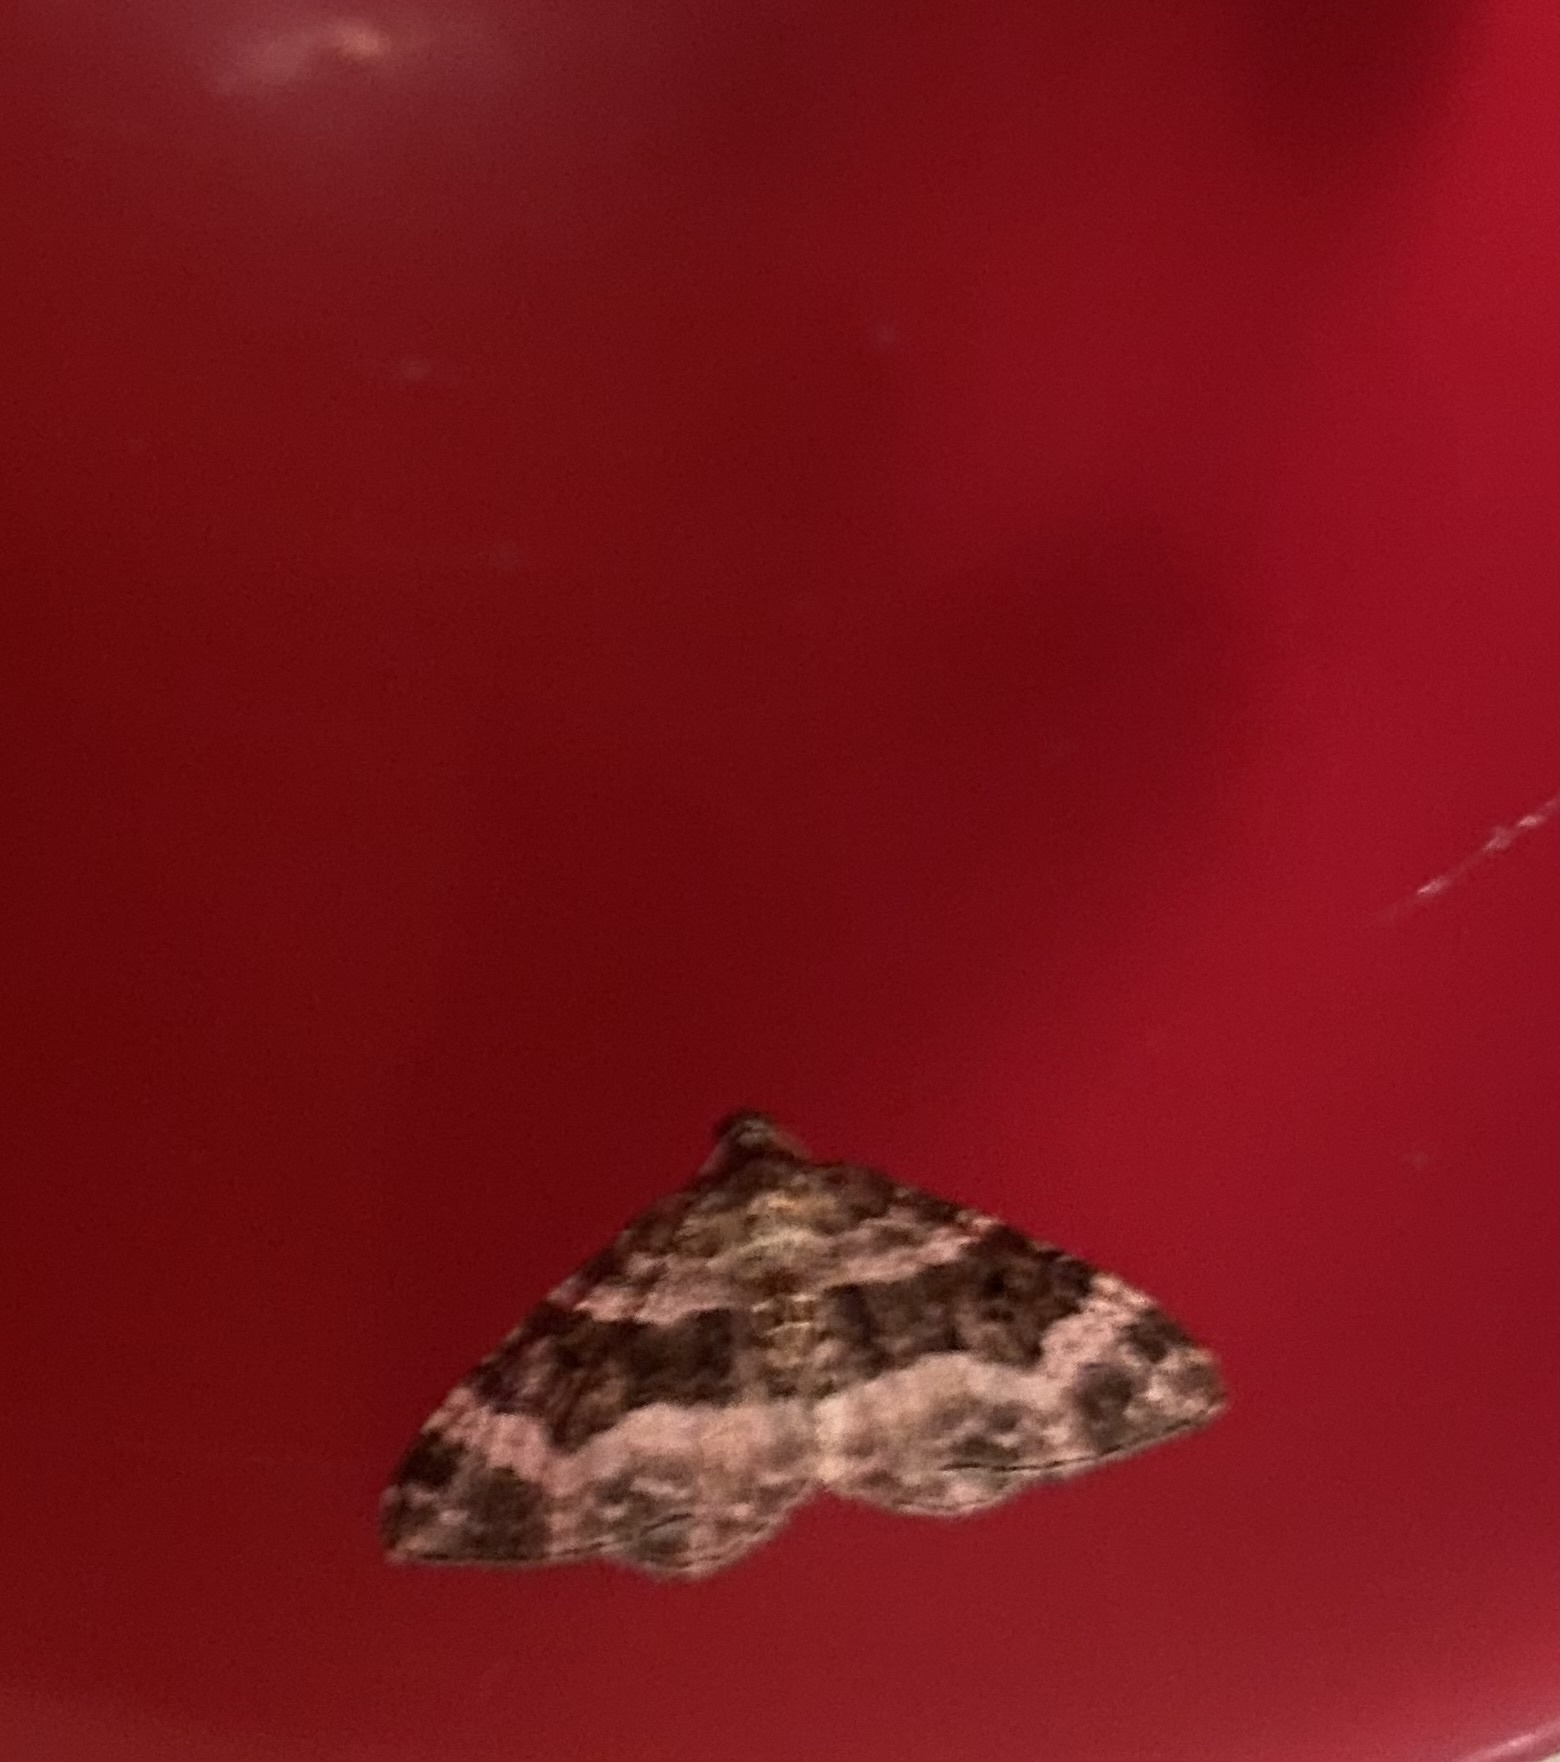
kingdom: Animalia
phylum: Arthropoda
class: Insecta
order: Lepidoptera
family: Geometridae
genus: Epirrhoe
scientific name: Epirrhoe alternata
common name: Common carpet
